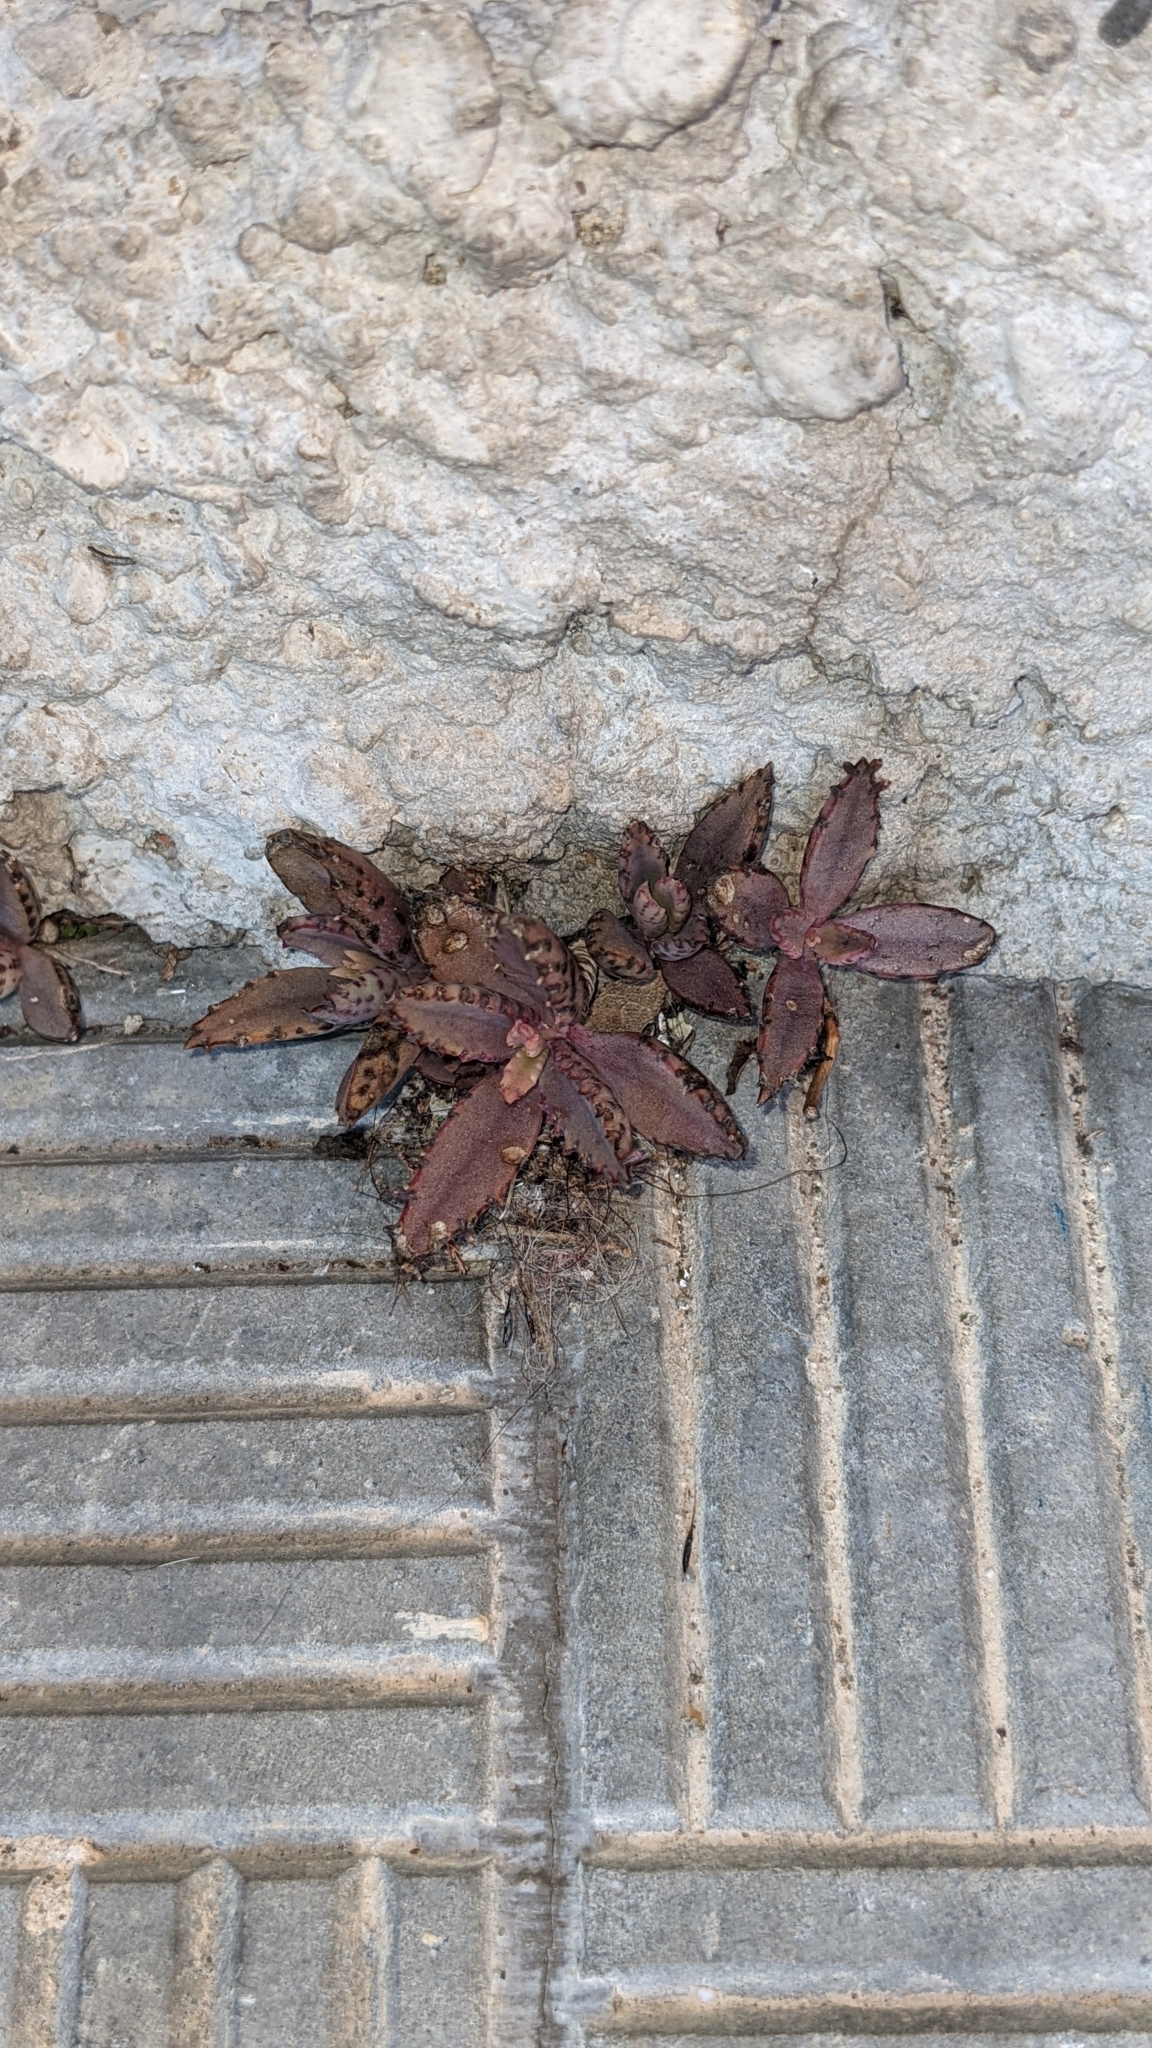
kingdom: Plantae
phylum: Tracheophyta
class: Magnoliopsida
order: Saxifragales
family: Crassulaceae
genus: Kalanchoe
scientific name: Kalanchoe houghtonii
